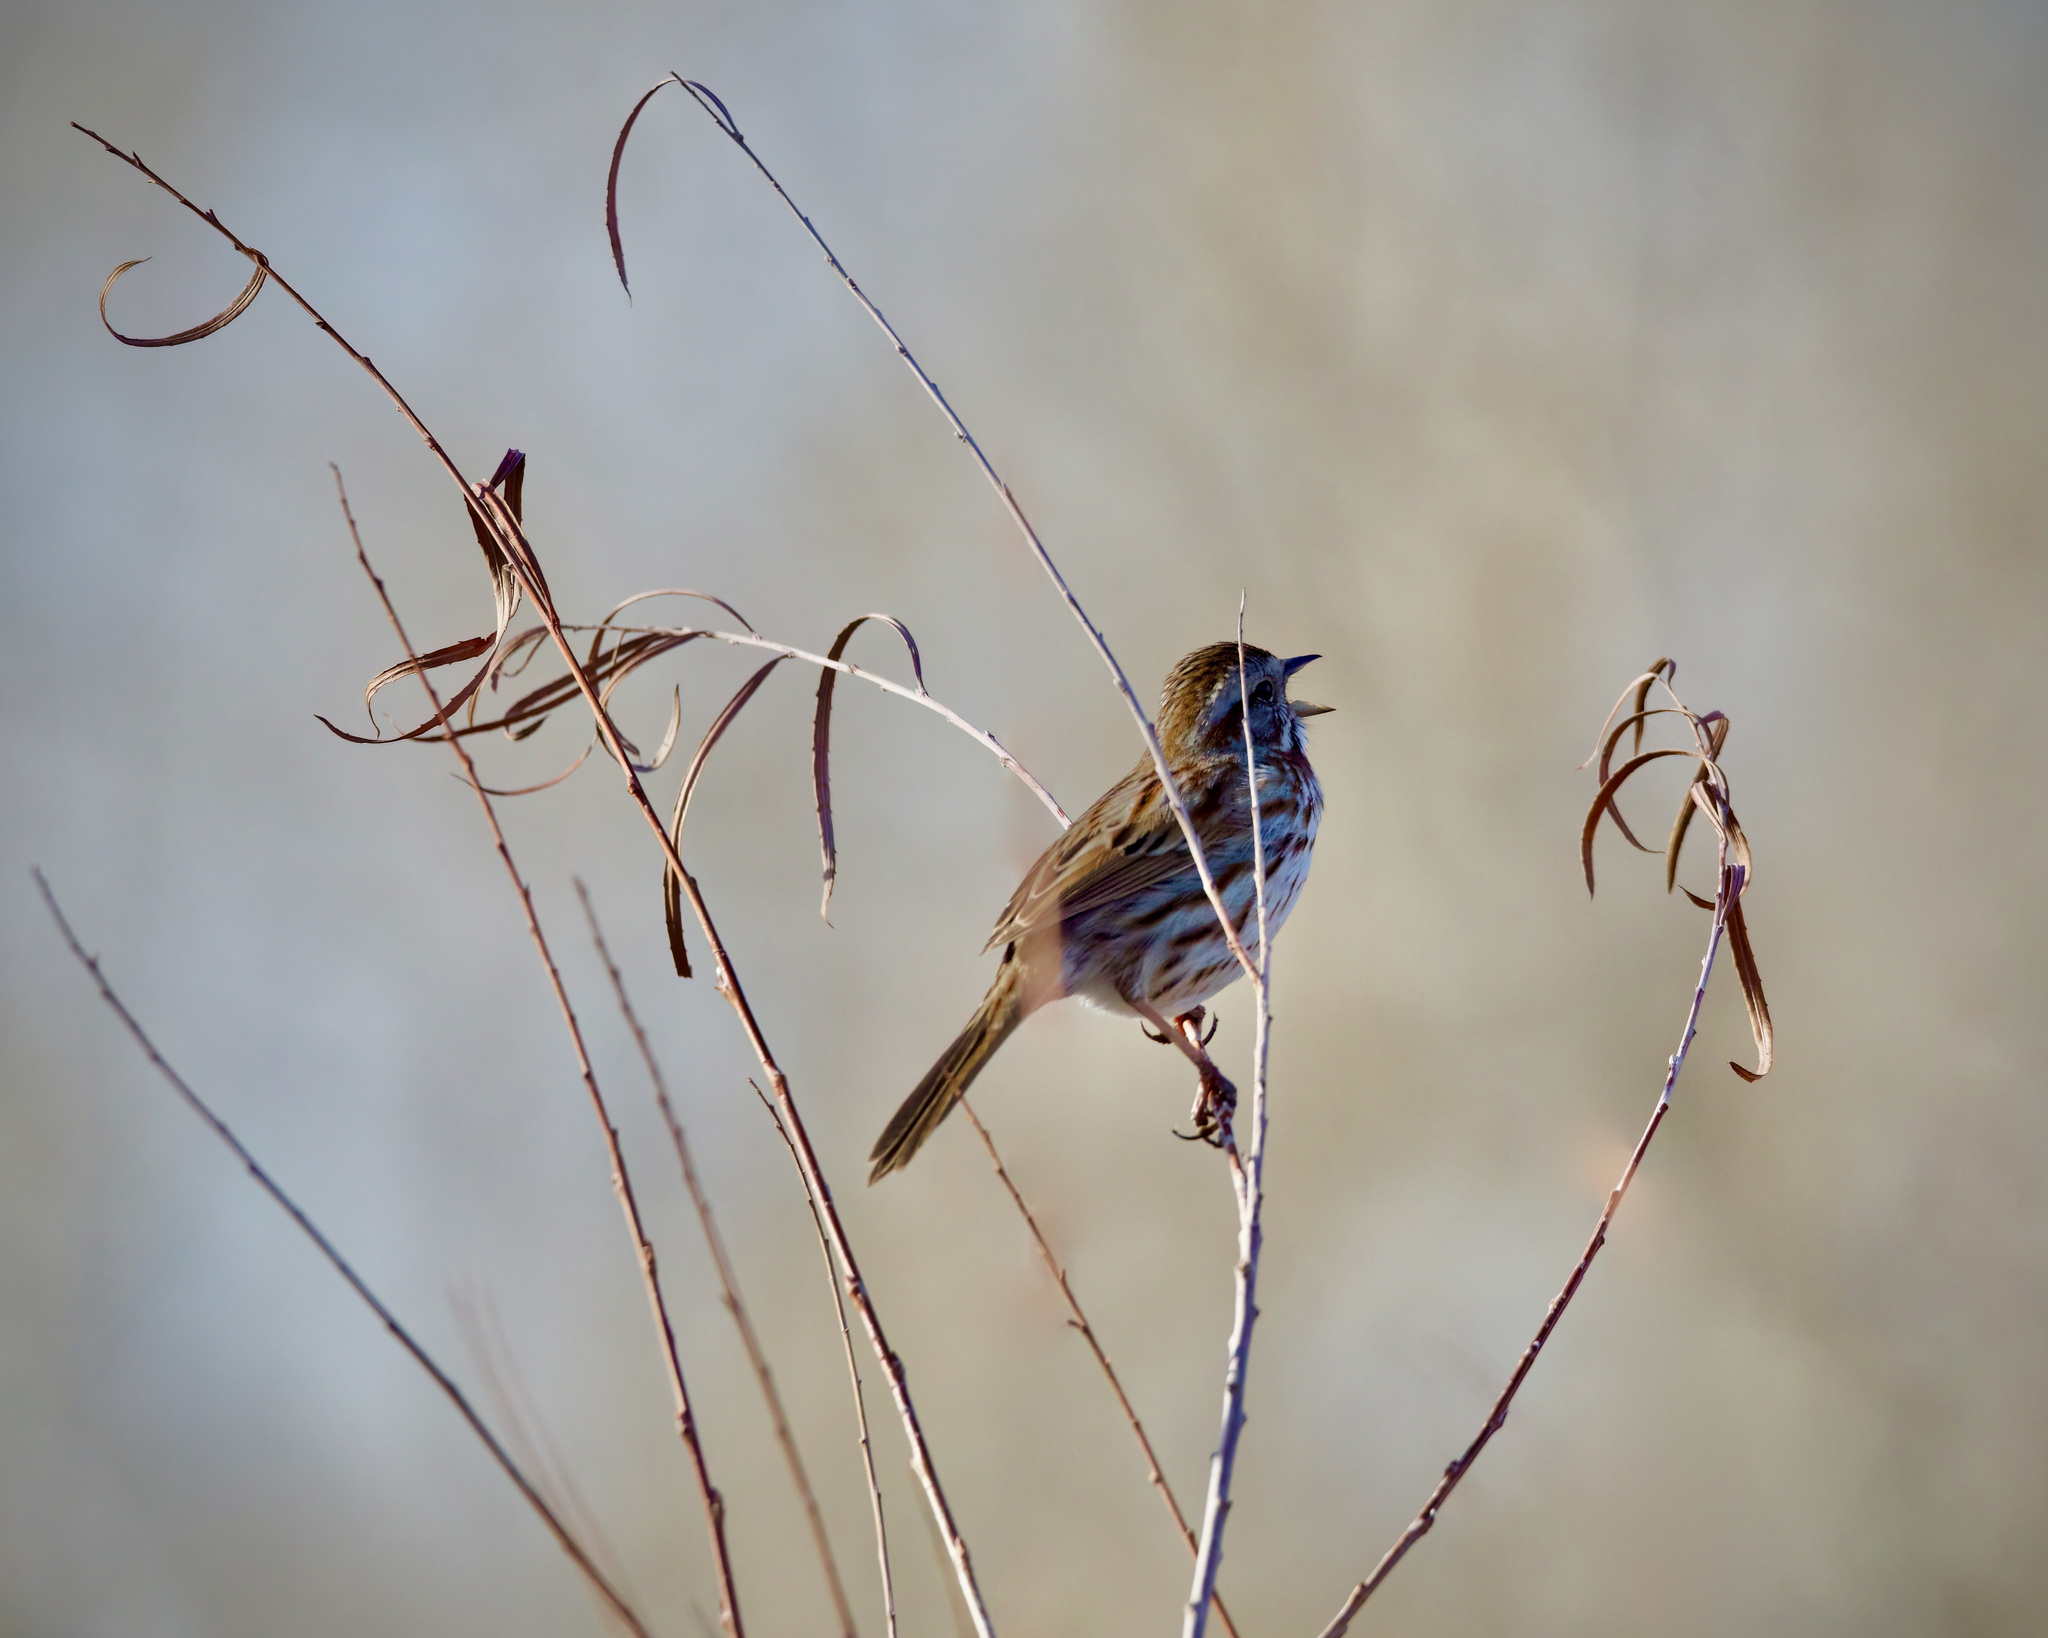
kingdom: Animalia
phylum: Chordata
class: Aves
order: Passeriformes
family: Passerellidae
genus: Melospiza
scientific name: Melospiza melodia
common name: Song sparrow
